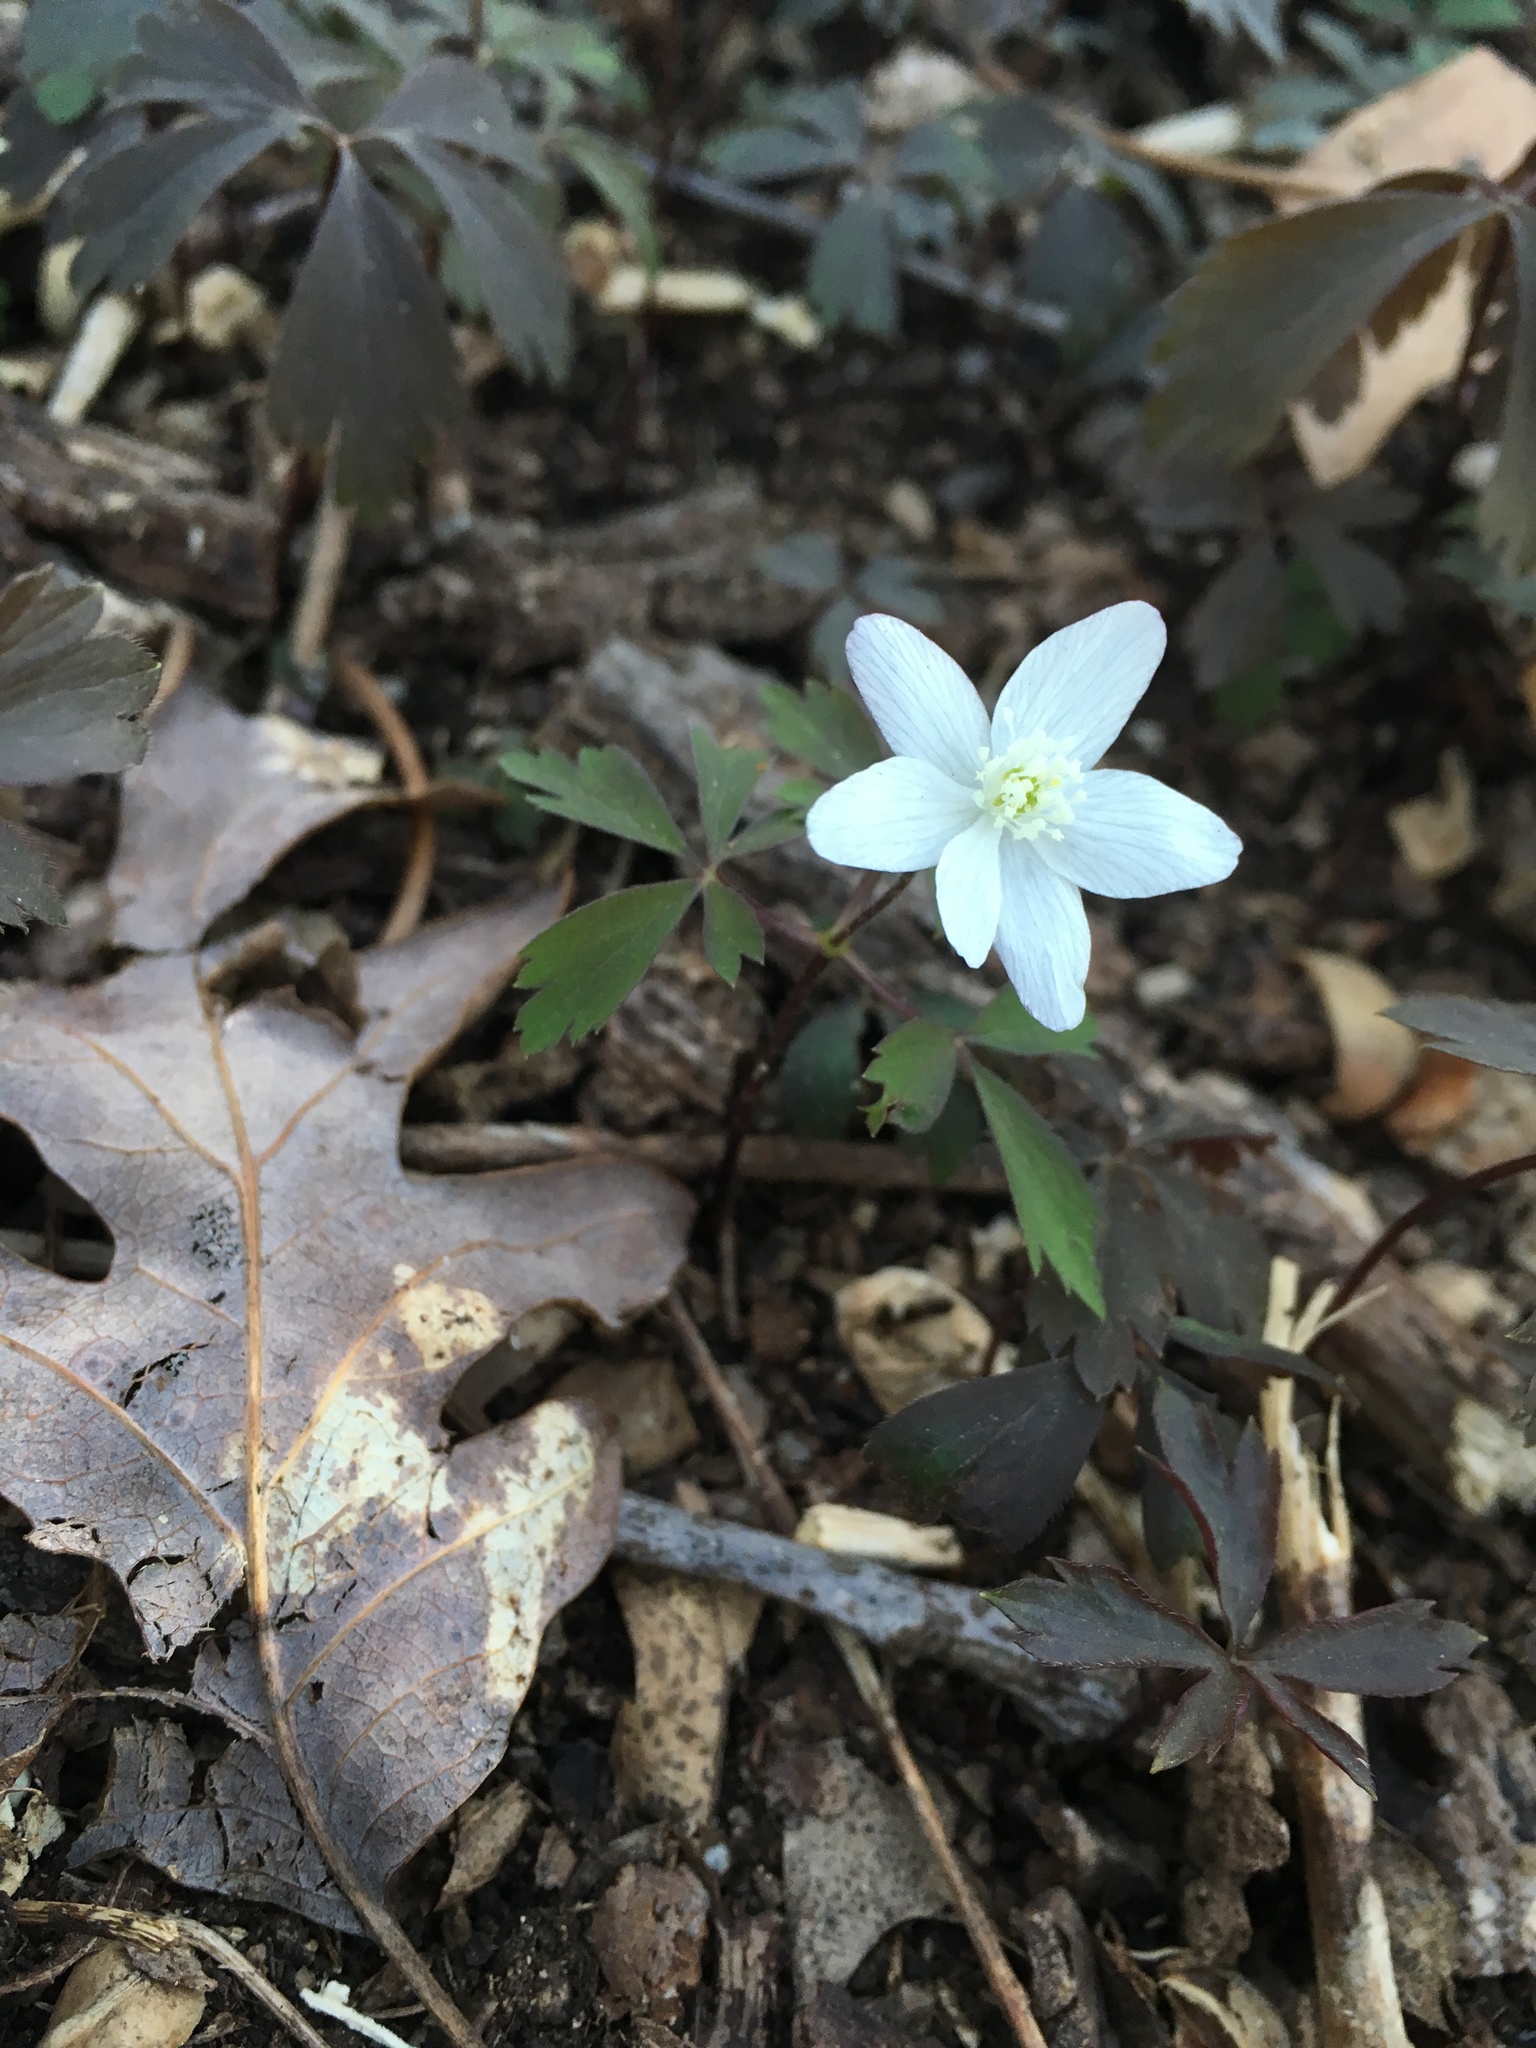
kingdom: Plantae
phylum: Tracheophyta
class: Magnoliopsida
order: Ranunculales
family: Ranunculaceae
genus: Anemone
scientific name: Anemone quinquefolia
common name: Wood anemone
